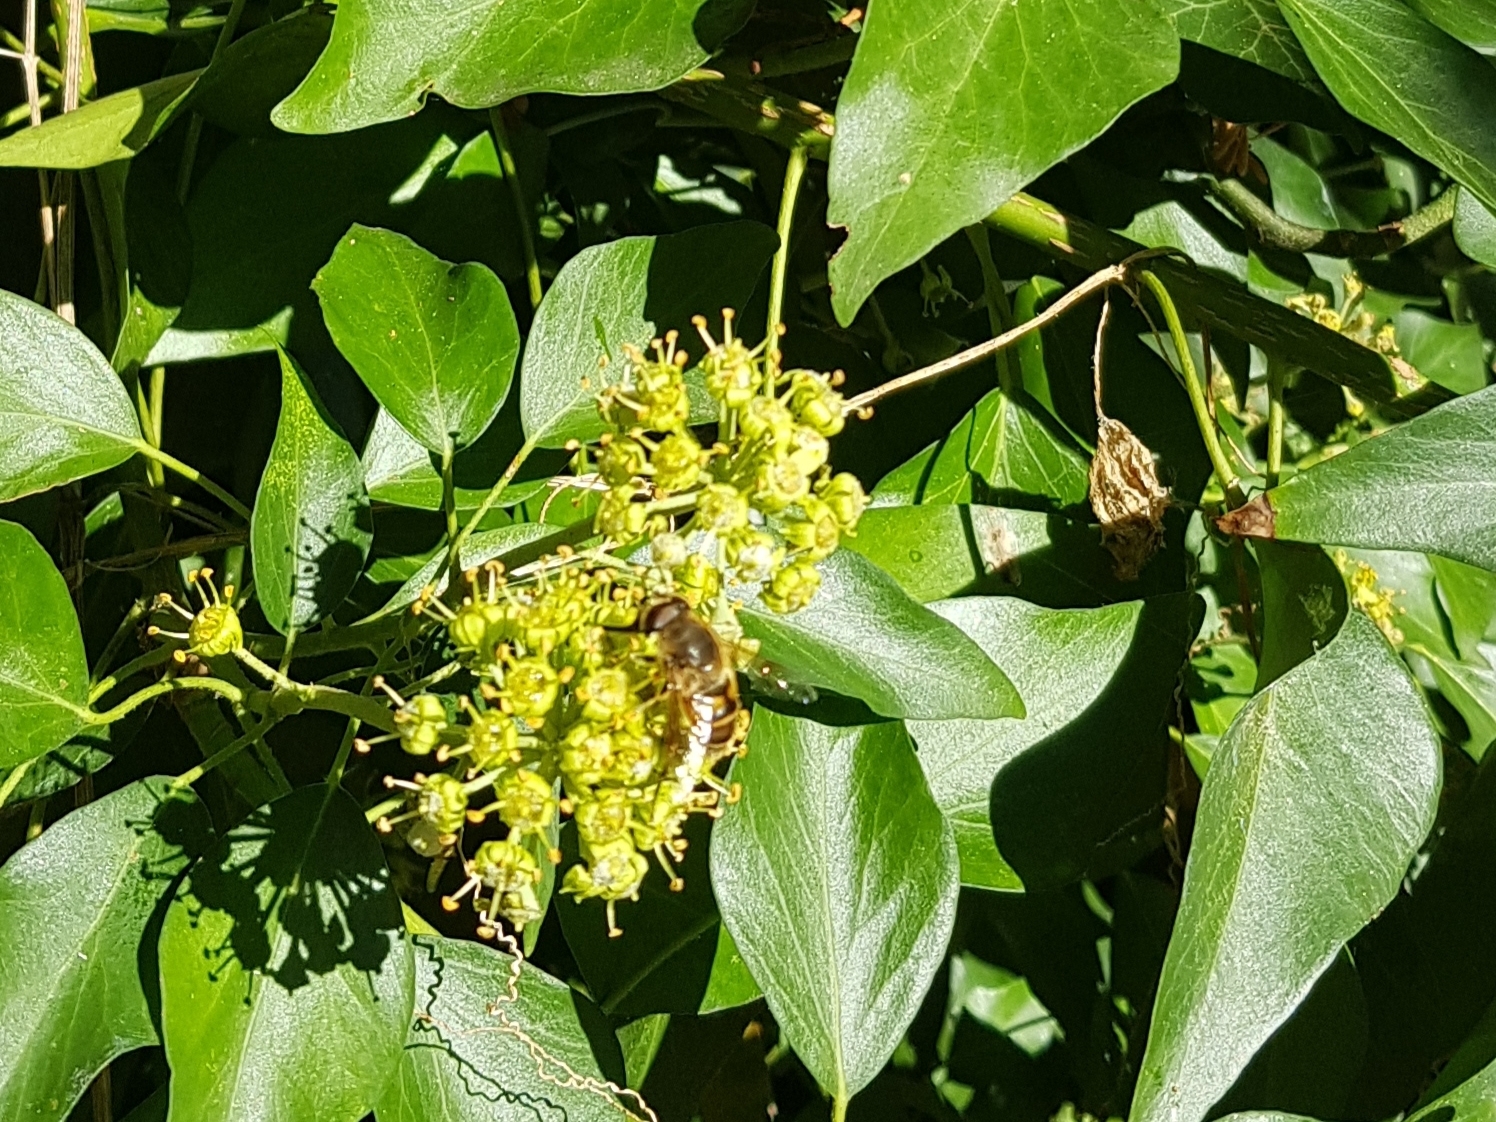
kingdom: Animalia
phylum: Arthropoda
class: Insecta
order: Diptera
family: Syrphidae
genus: Eristalis
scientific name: Eristalis tenax
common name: Drone fly
